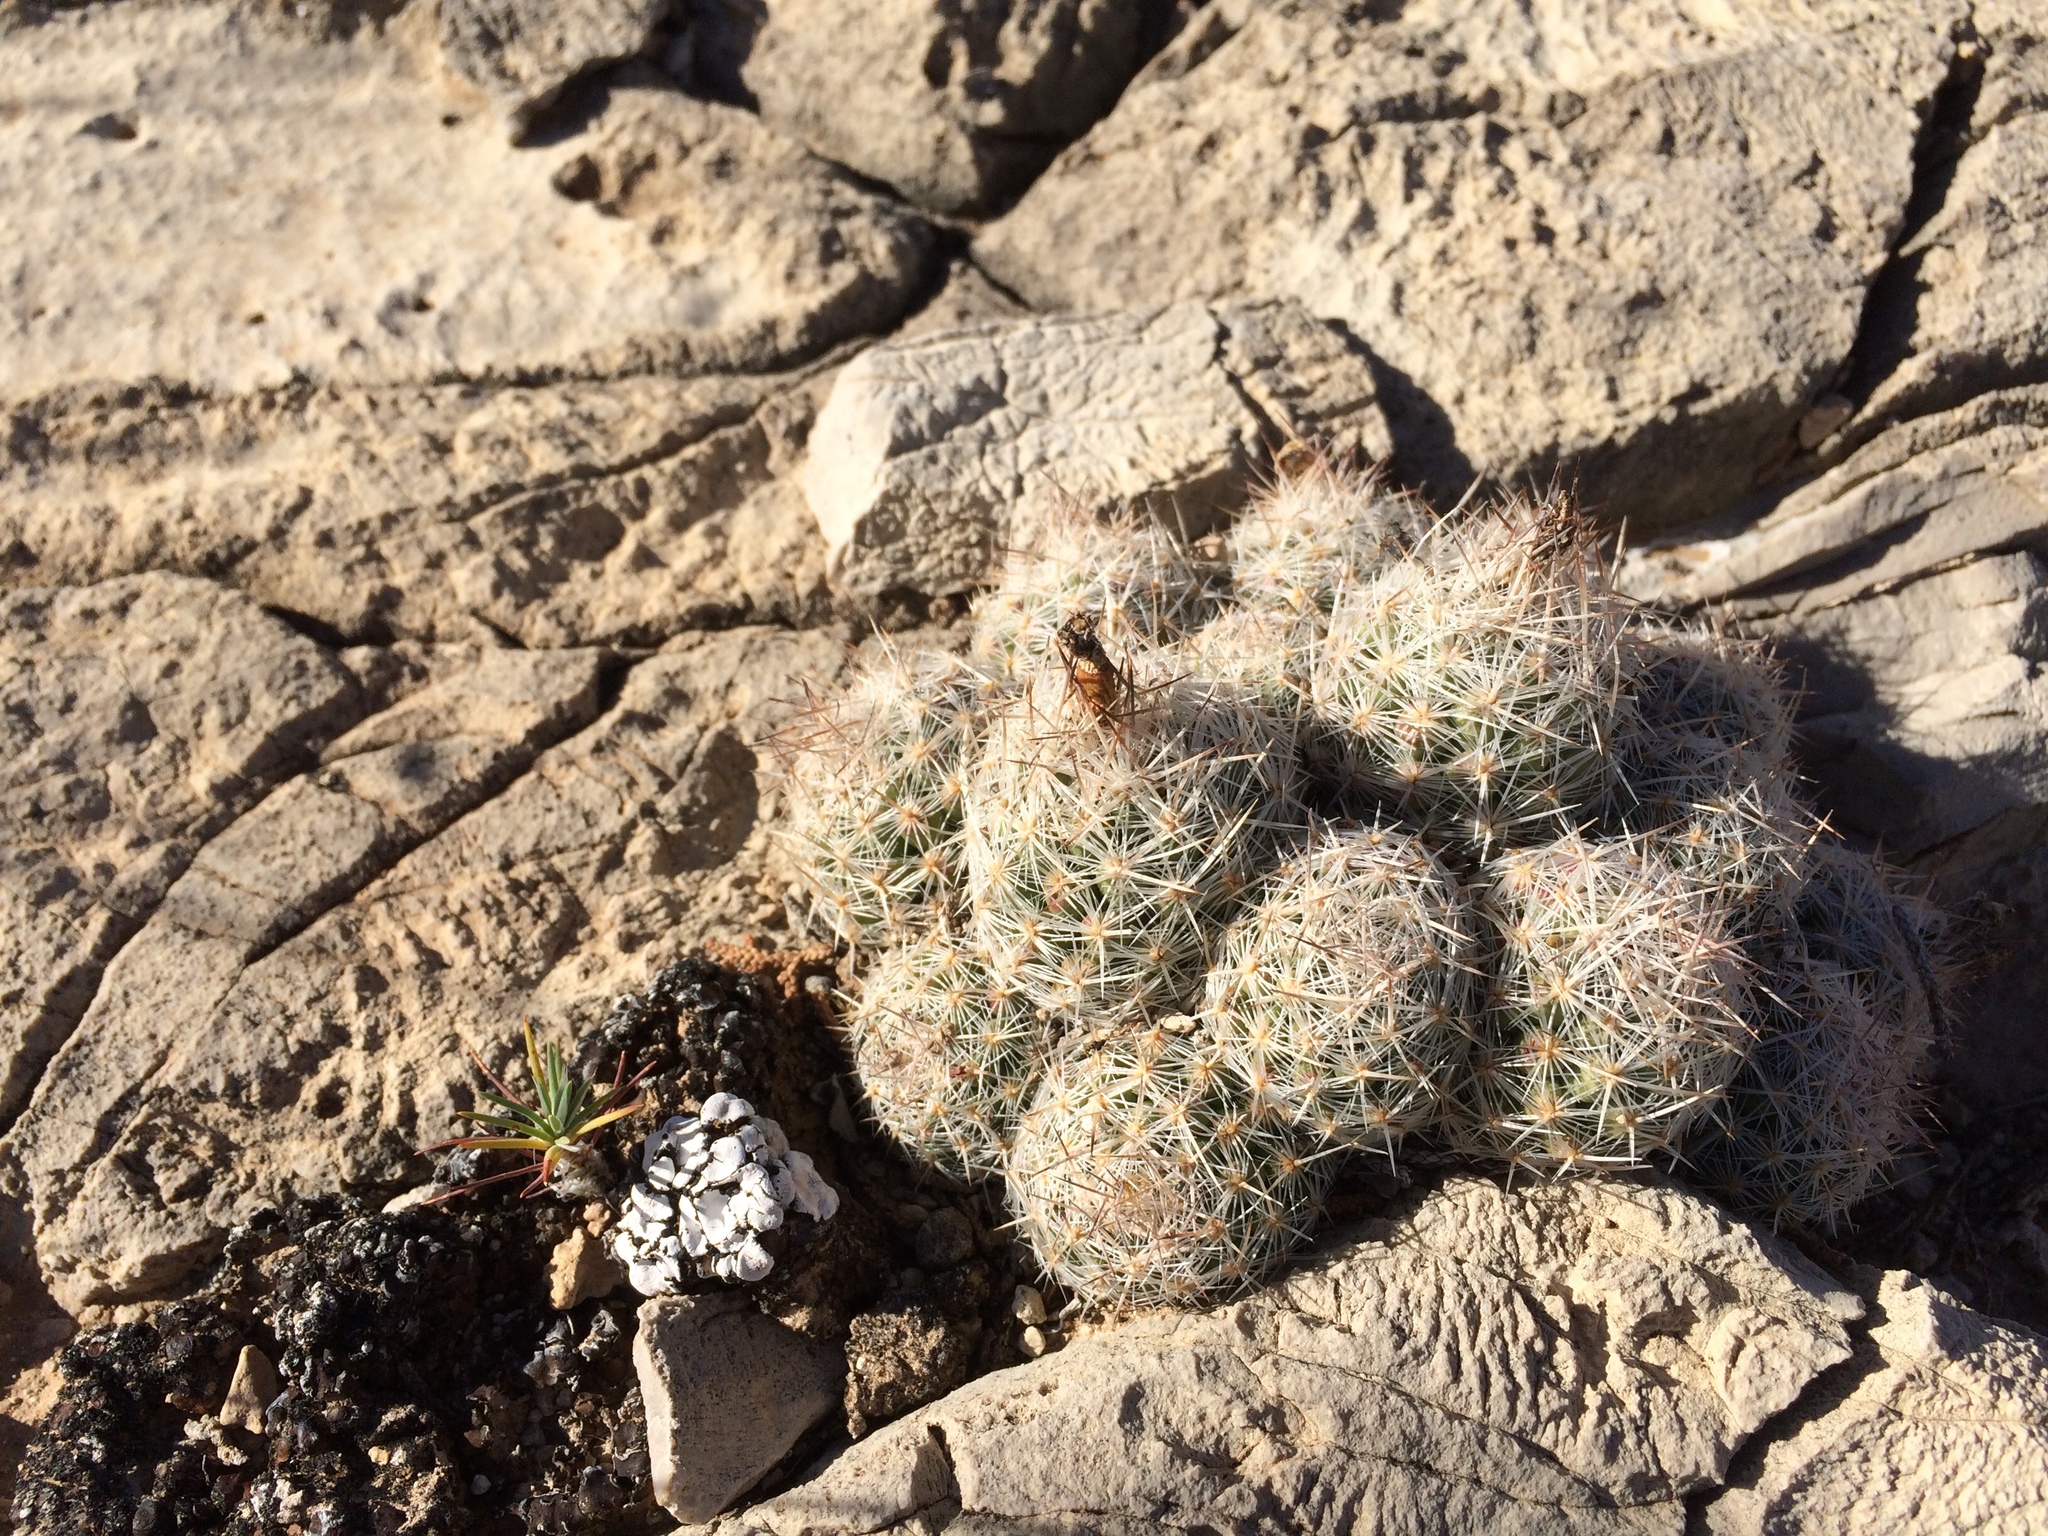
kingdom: Plantae
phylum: Tracheophyta
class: Magnoliopsida
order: Caryophyllales
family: Cactaceae
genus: Pelecyphora
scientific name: Pelecyphora tuberculosa
